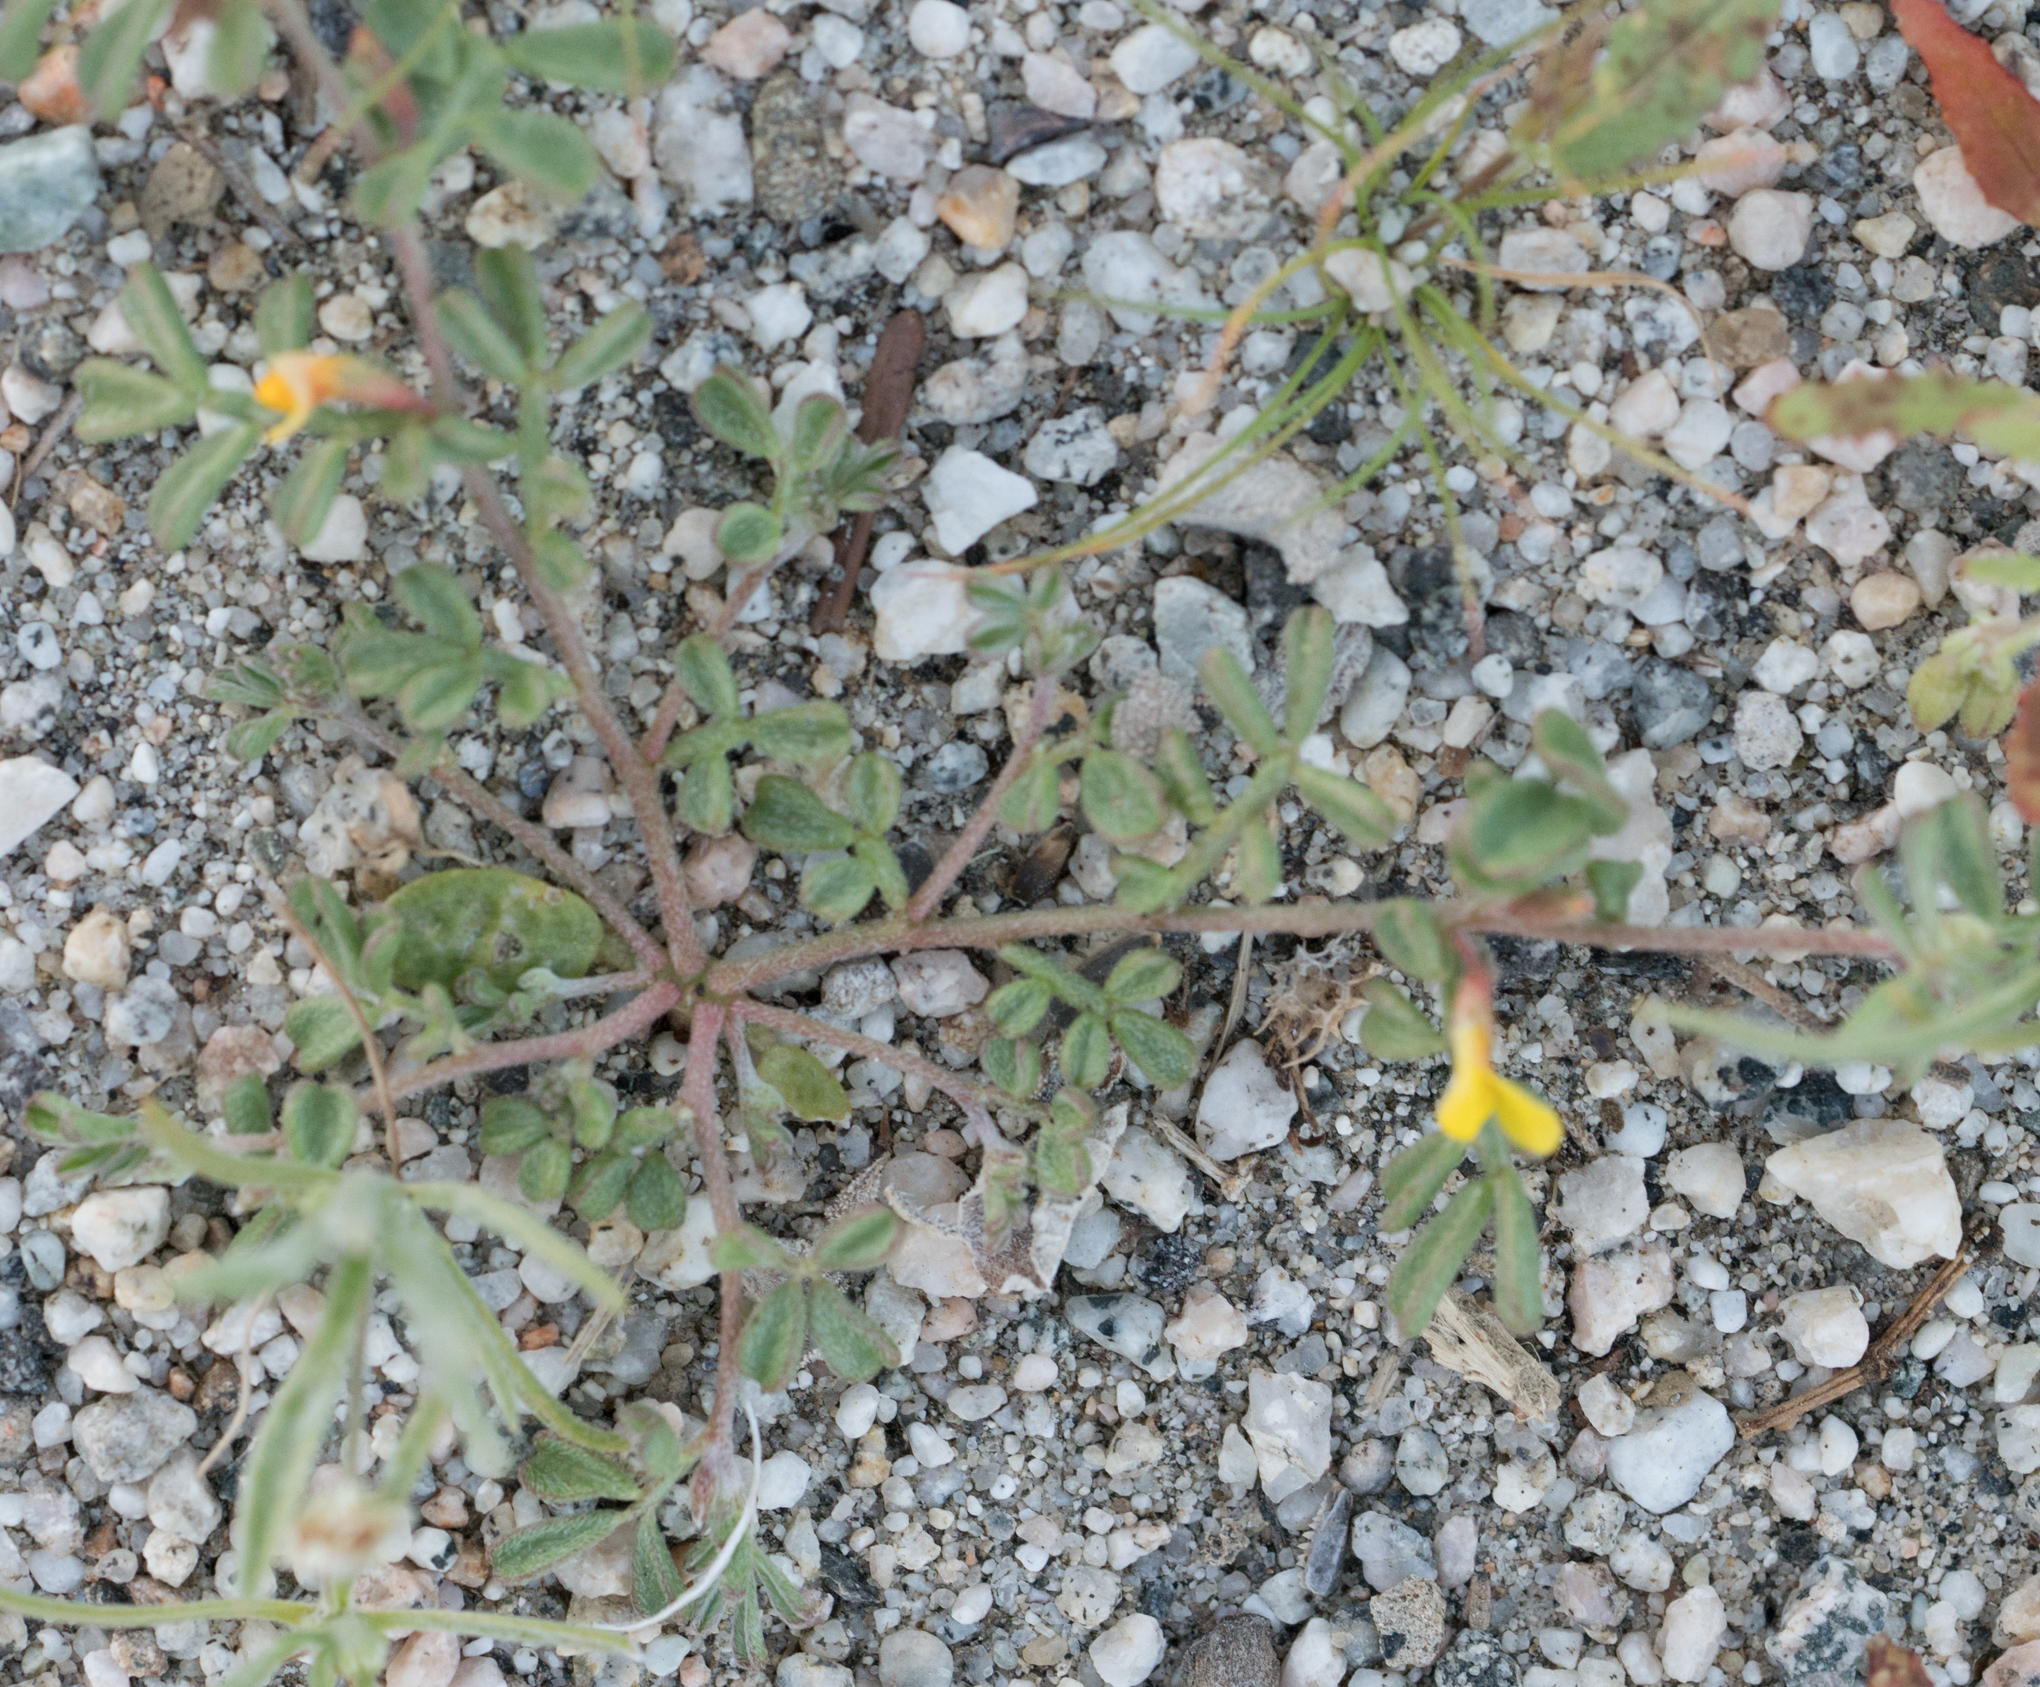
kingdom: Plantae
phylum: Tracheophyta
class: Magnoliopsida
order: Fabales
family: Fabaceae
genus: Acmispon
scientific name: Acmispon strigosus
